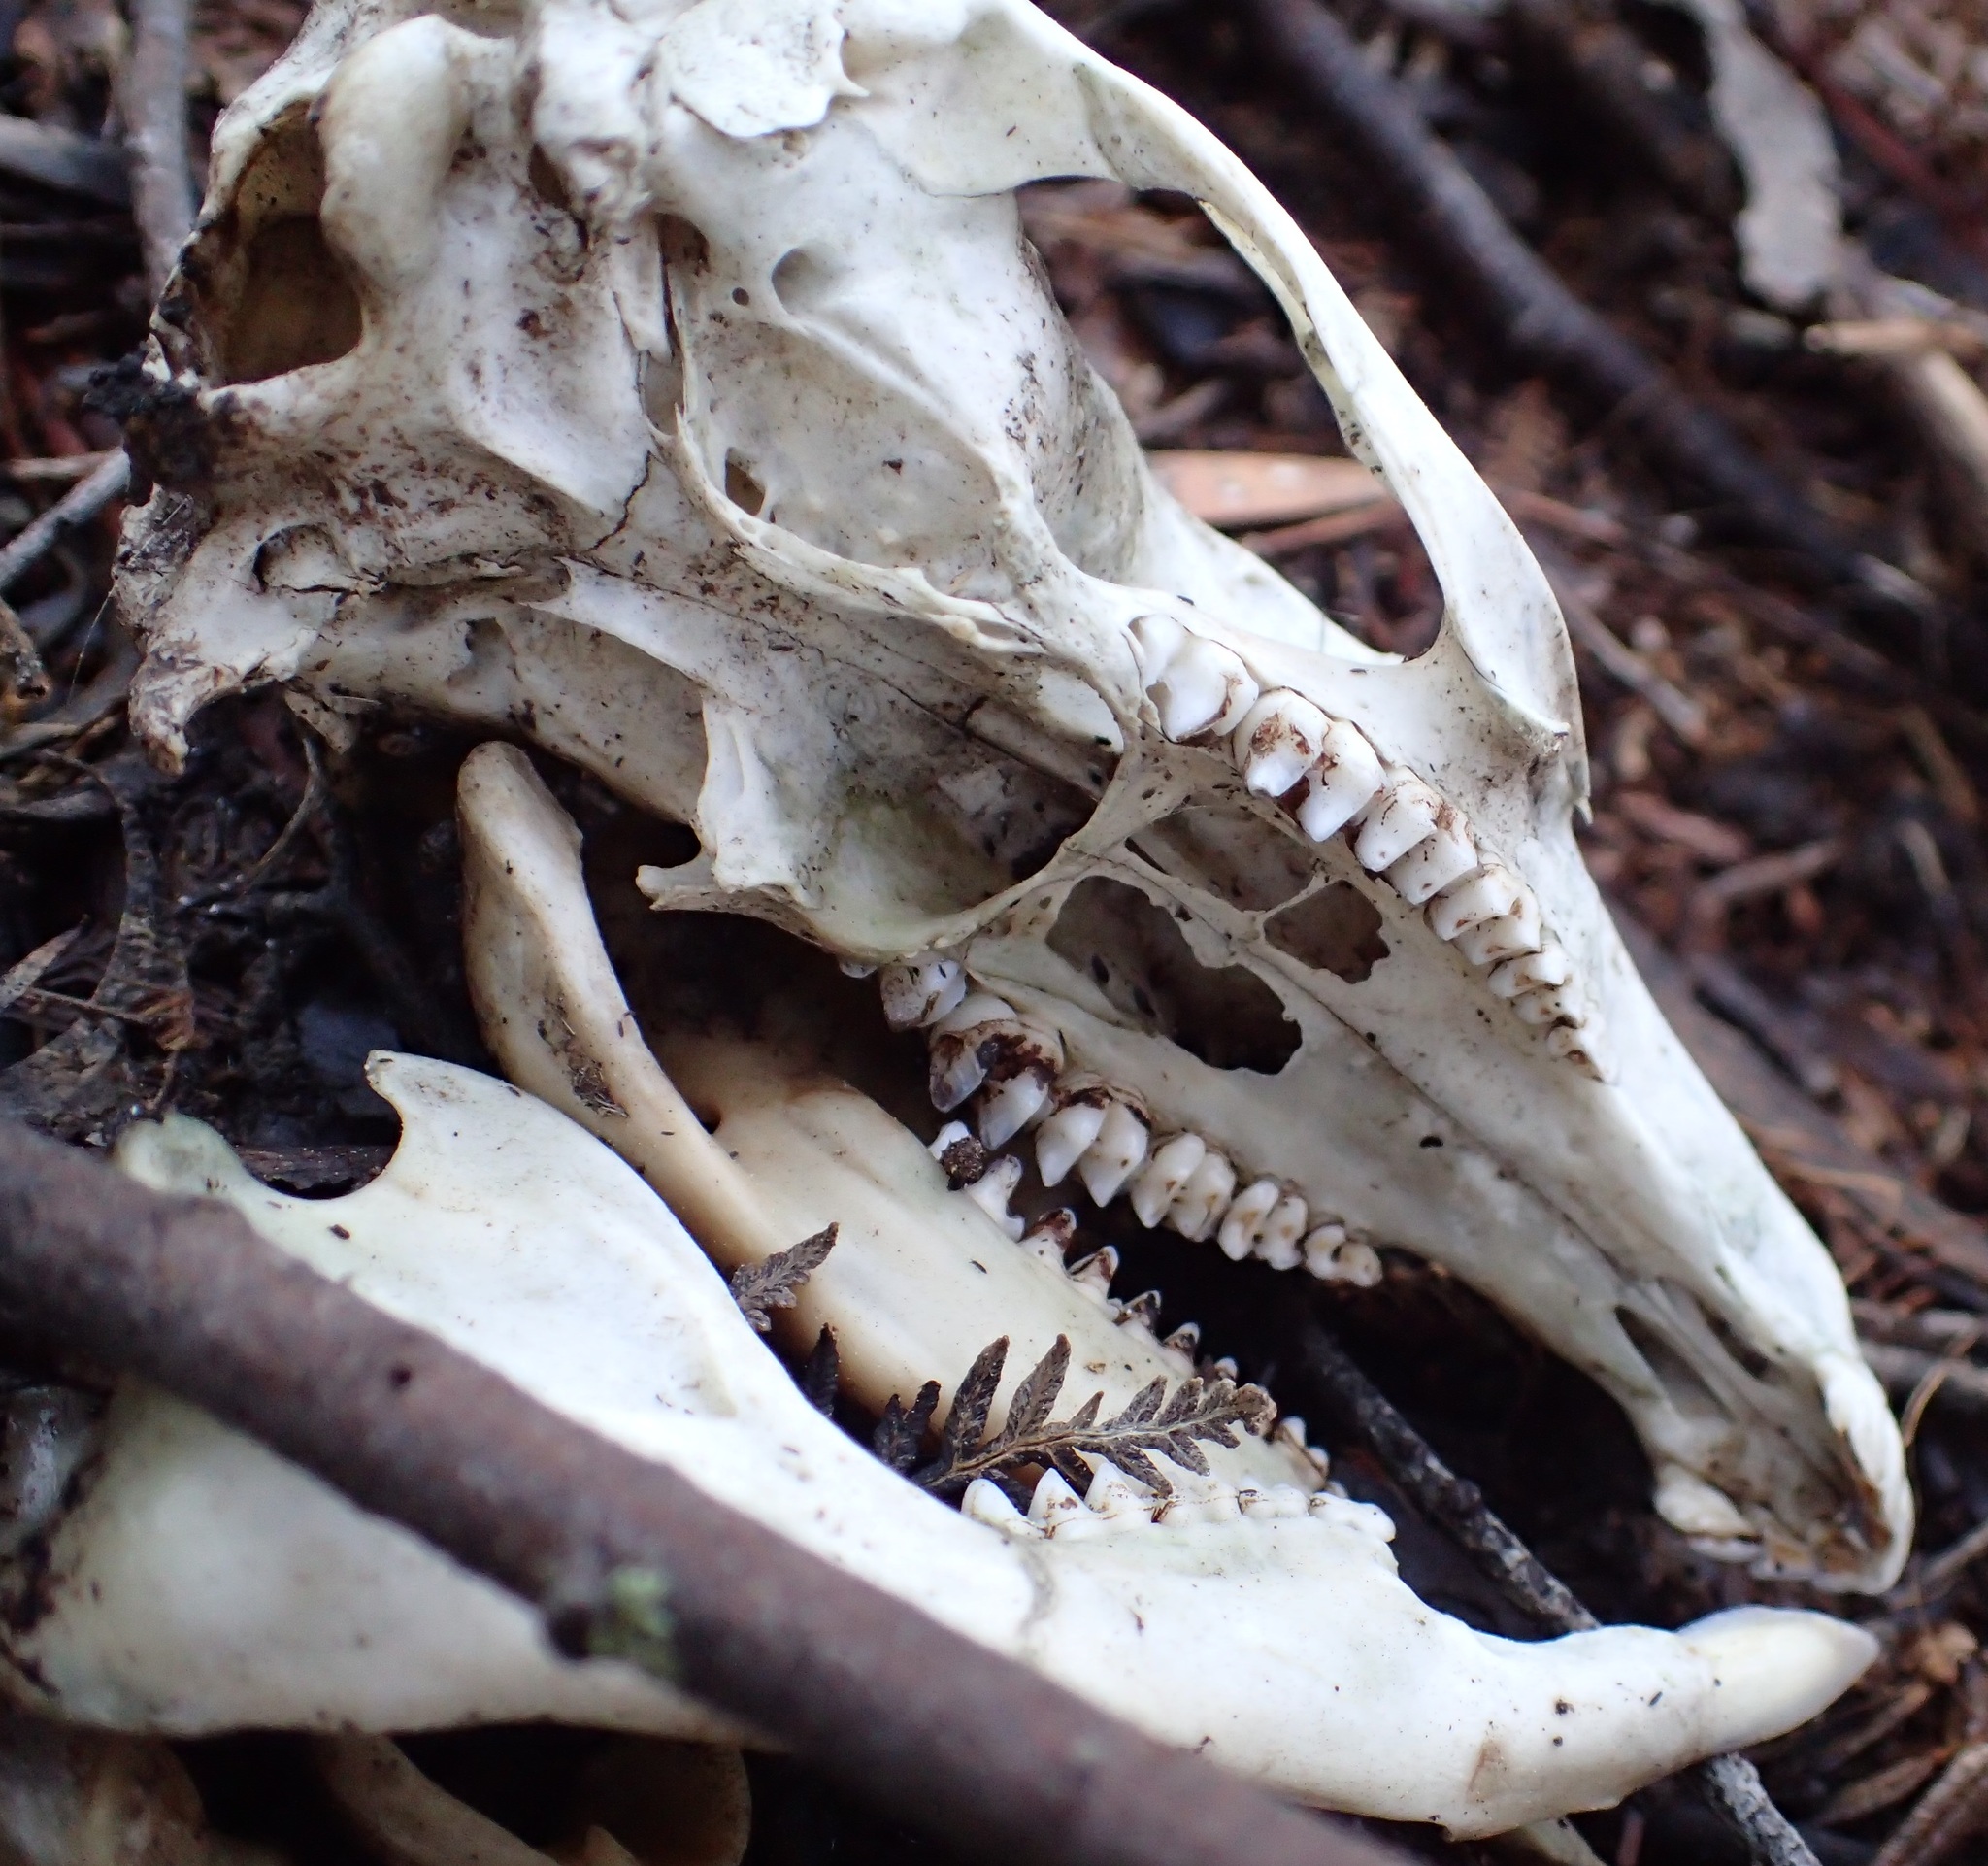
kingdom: Animalia
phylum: Chordata
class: Mammalia
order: Diprotodontia
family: Macropodidae
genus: Thylogale
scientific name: Thylogale billardierii
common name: Tasmanian pademelon
